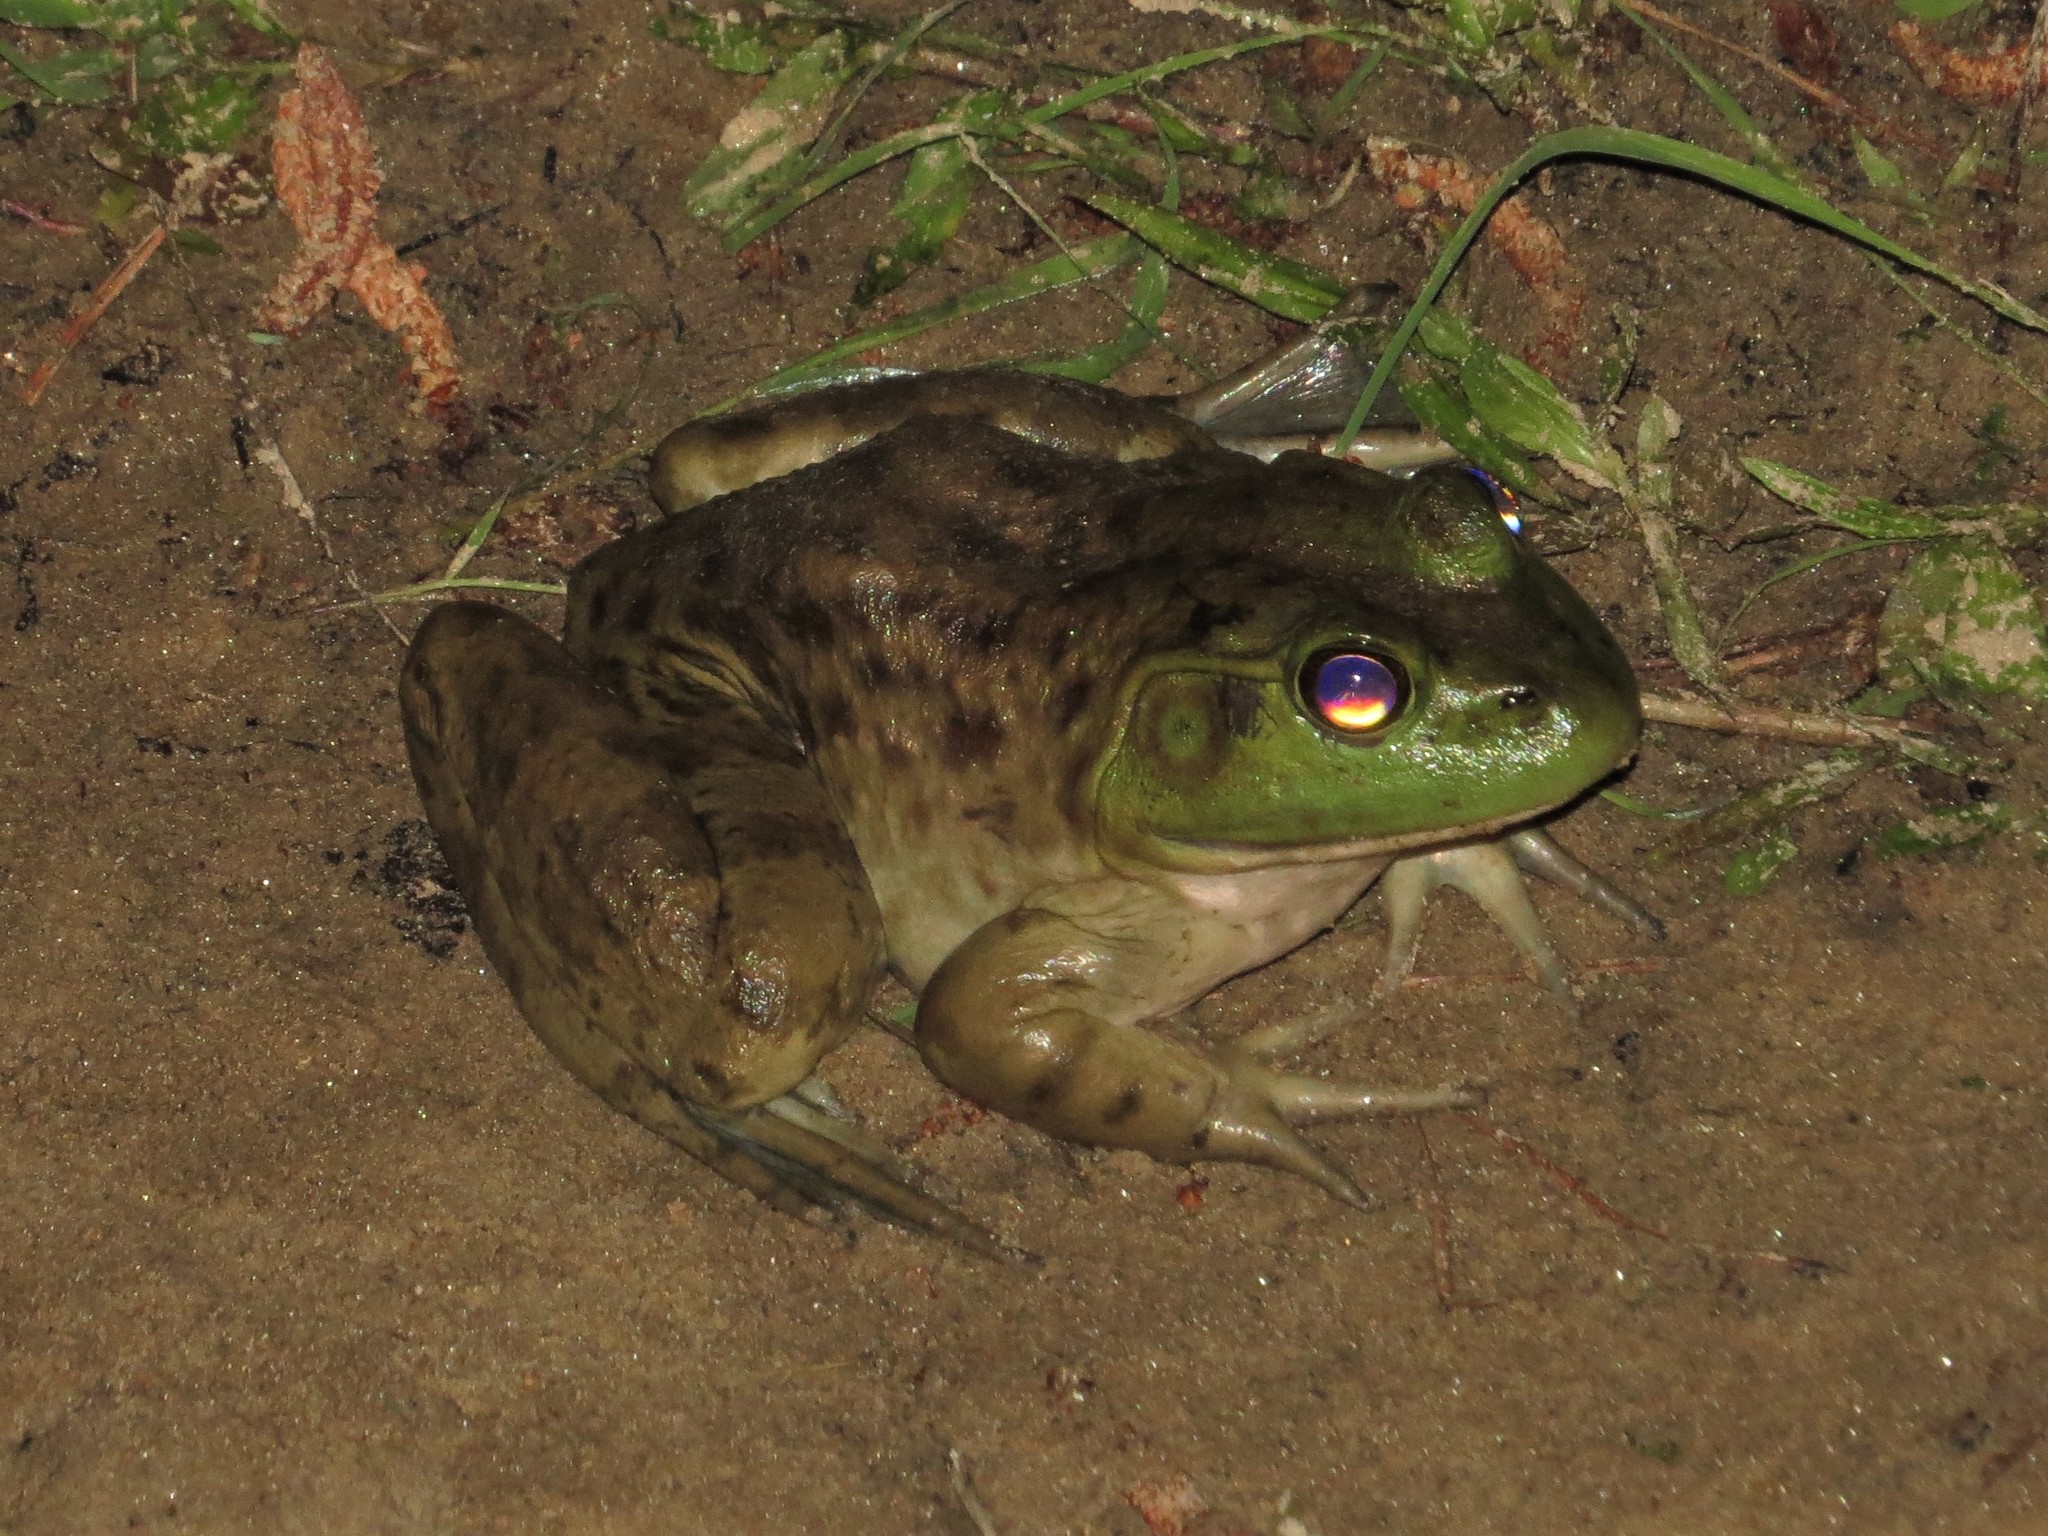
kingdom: Animalia
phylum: Chordata
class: Amphibia
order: Anura
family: Ranidae
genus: Lithobates
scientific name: Lithobates catesbeianus
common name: American bullfrog
